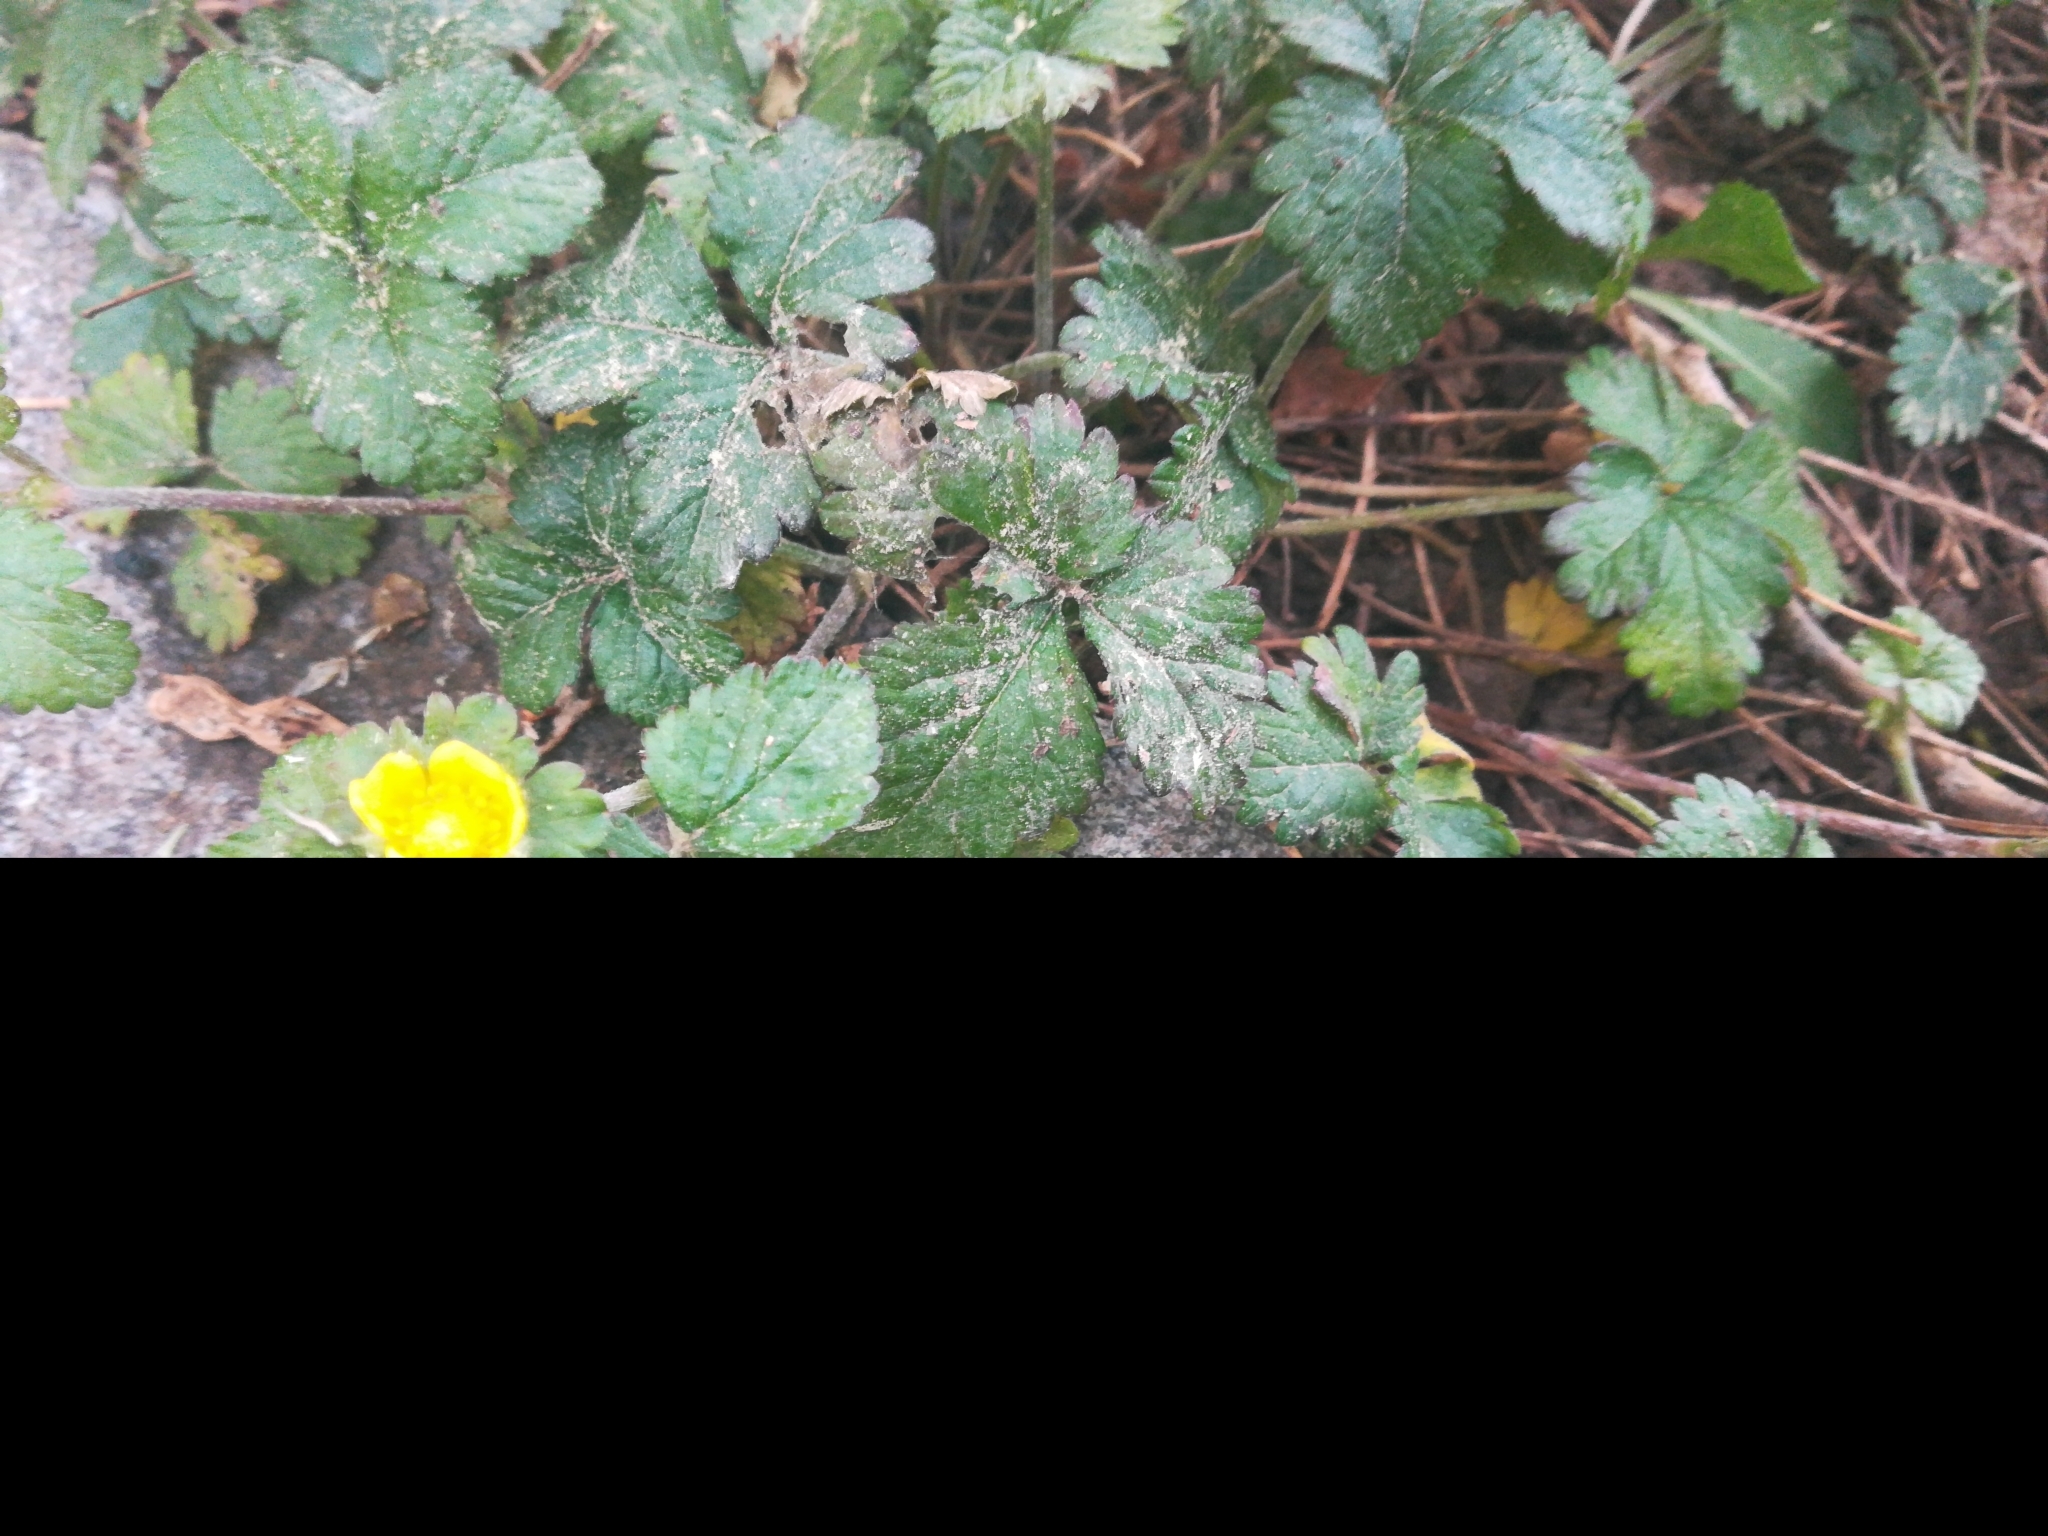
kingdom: Plantae
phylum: Tracheophyta
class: Magnoliopsida
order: Rosales
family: Rosaceae
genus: Potentilla
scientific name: Potentilla indica
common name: Yellow-flowered strawberry
